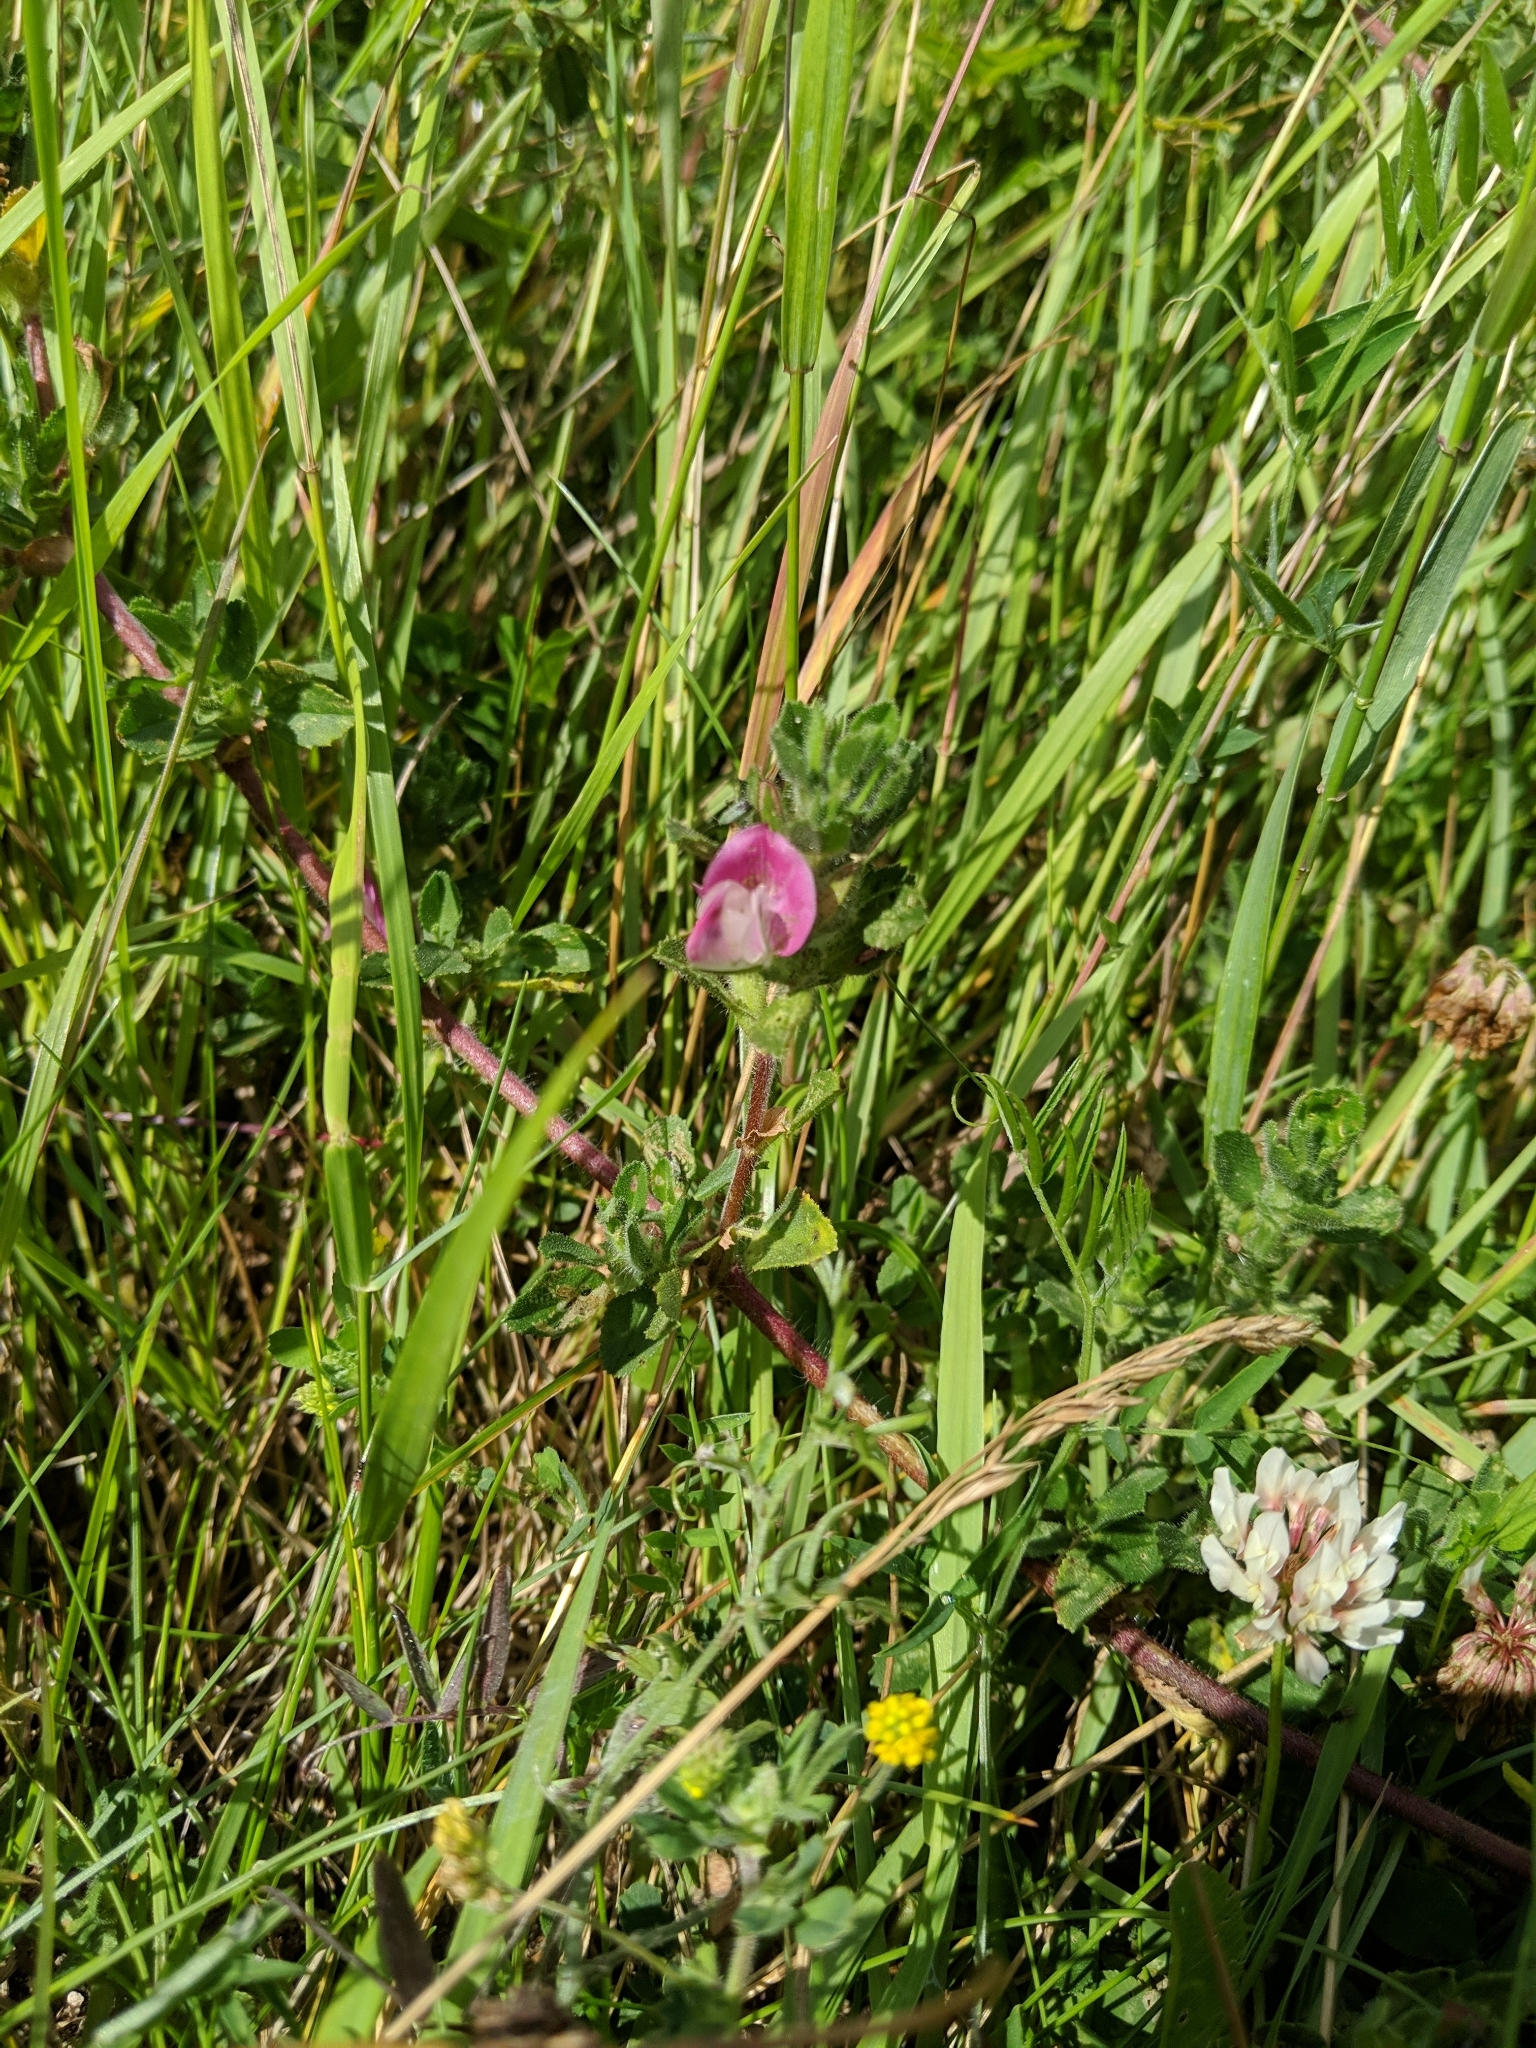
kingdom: Plantae
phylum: Tracheophyta
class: Magnoliopsida
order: Fabales
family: Fabaceae
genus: Ononis
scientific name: Ononis spinosa
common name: Spiny restharrow
